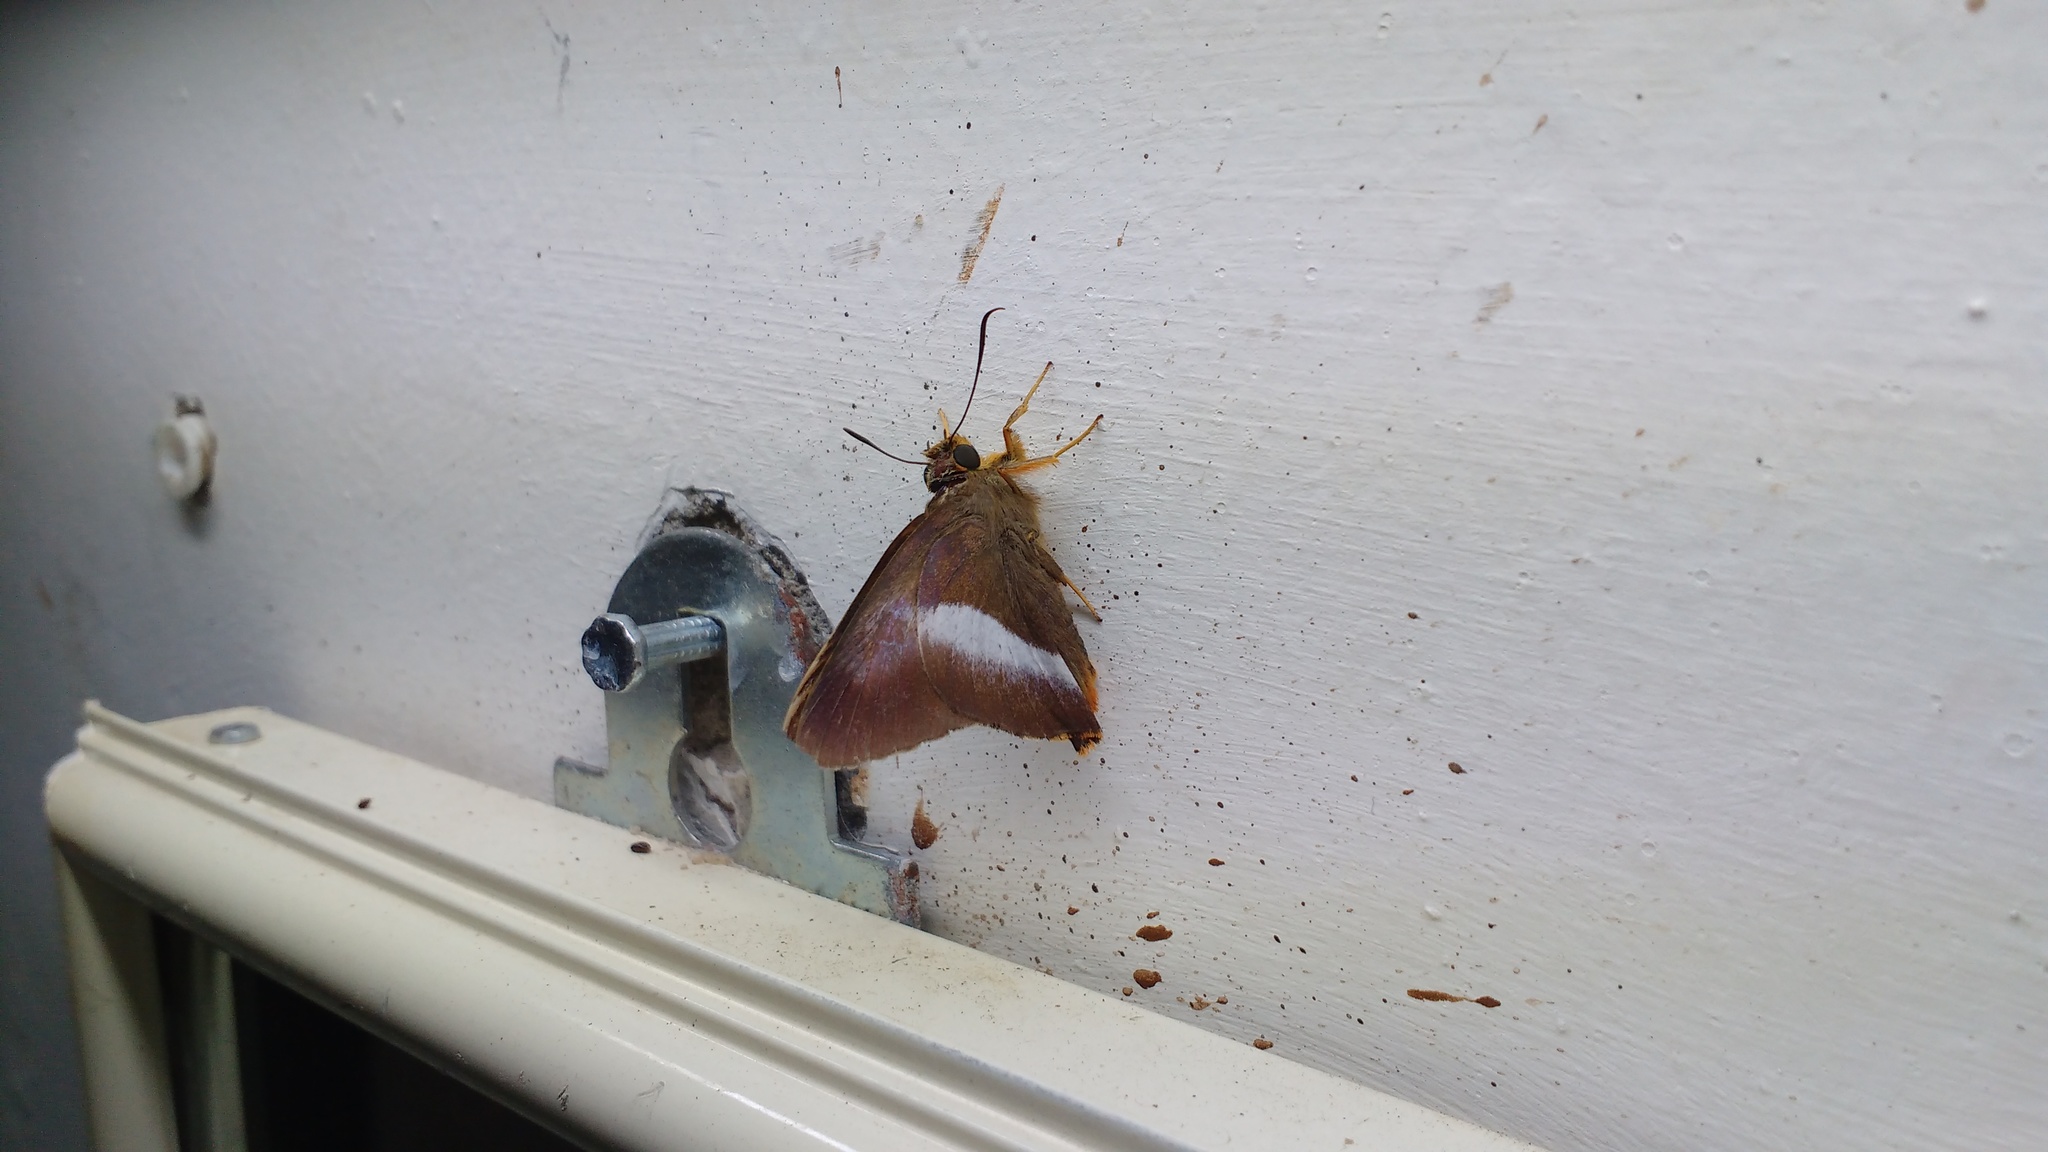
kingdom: Animalia
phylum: Arthropoda
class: Insecta
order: Lepidoptera
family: Hesperiidae
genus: Bibasis
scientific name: Bibasis sena
